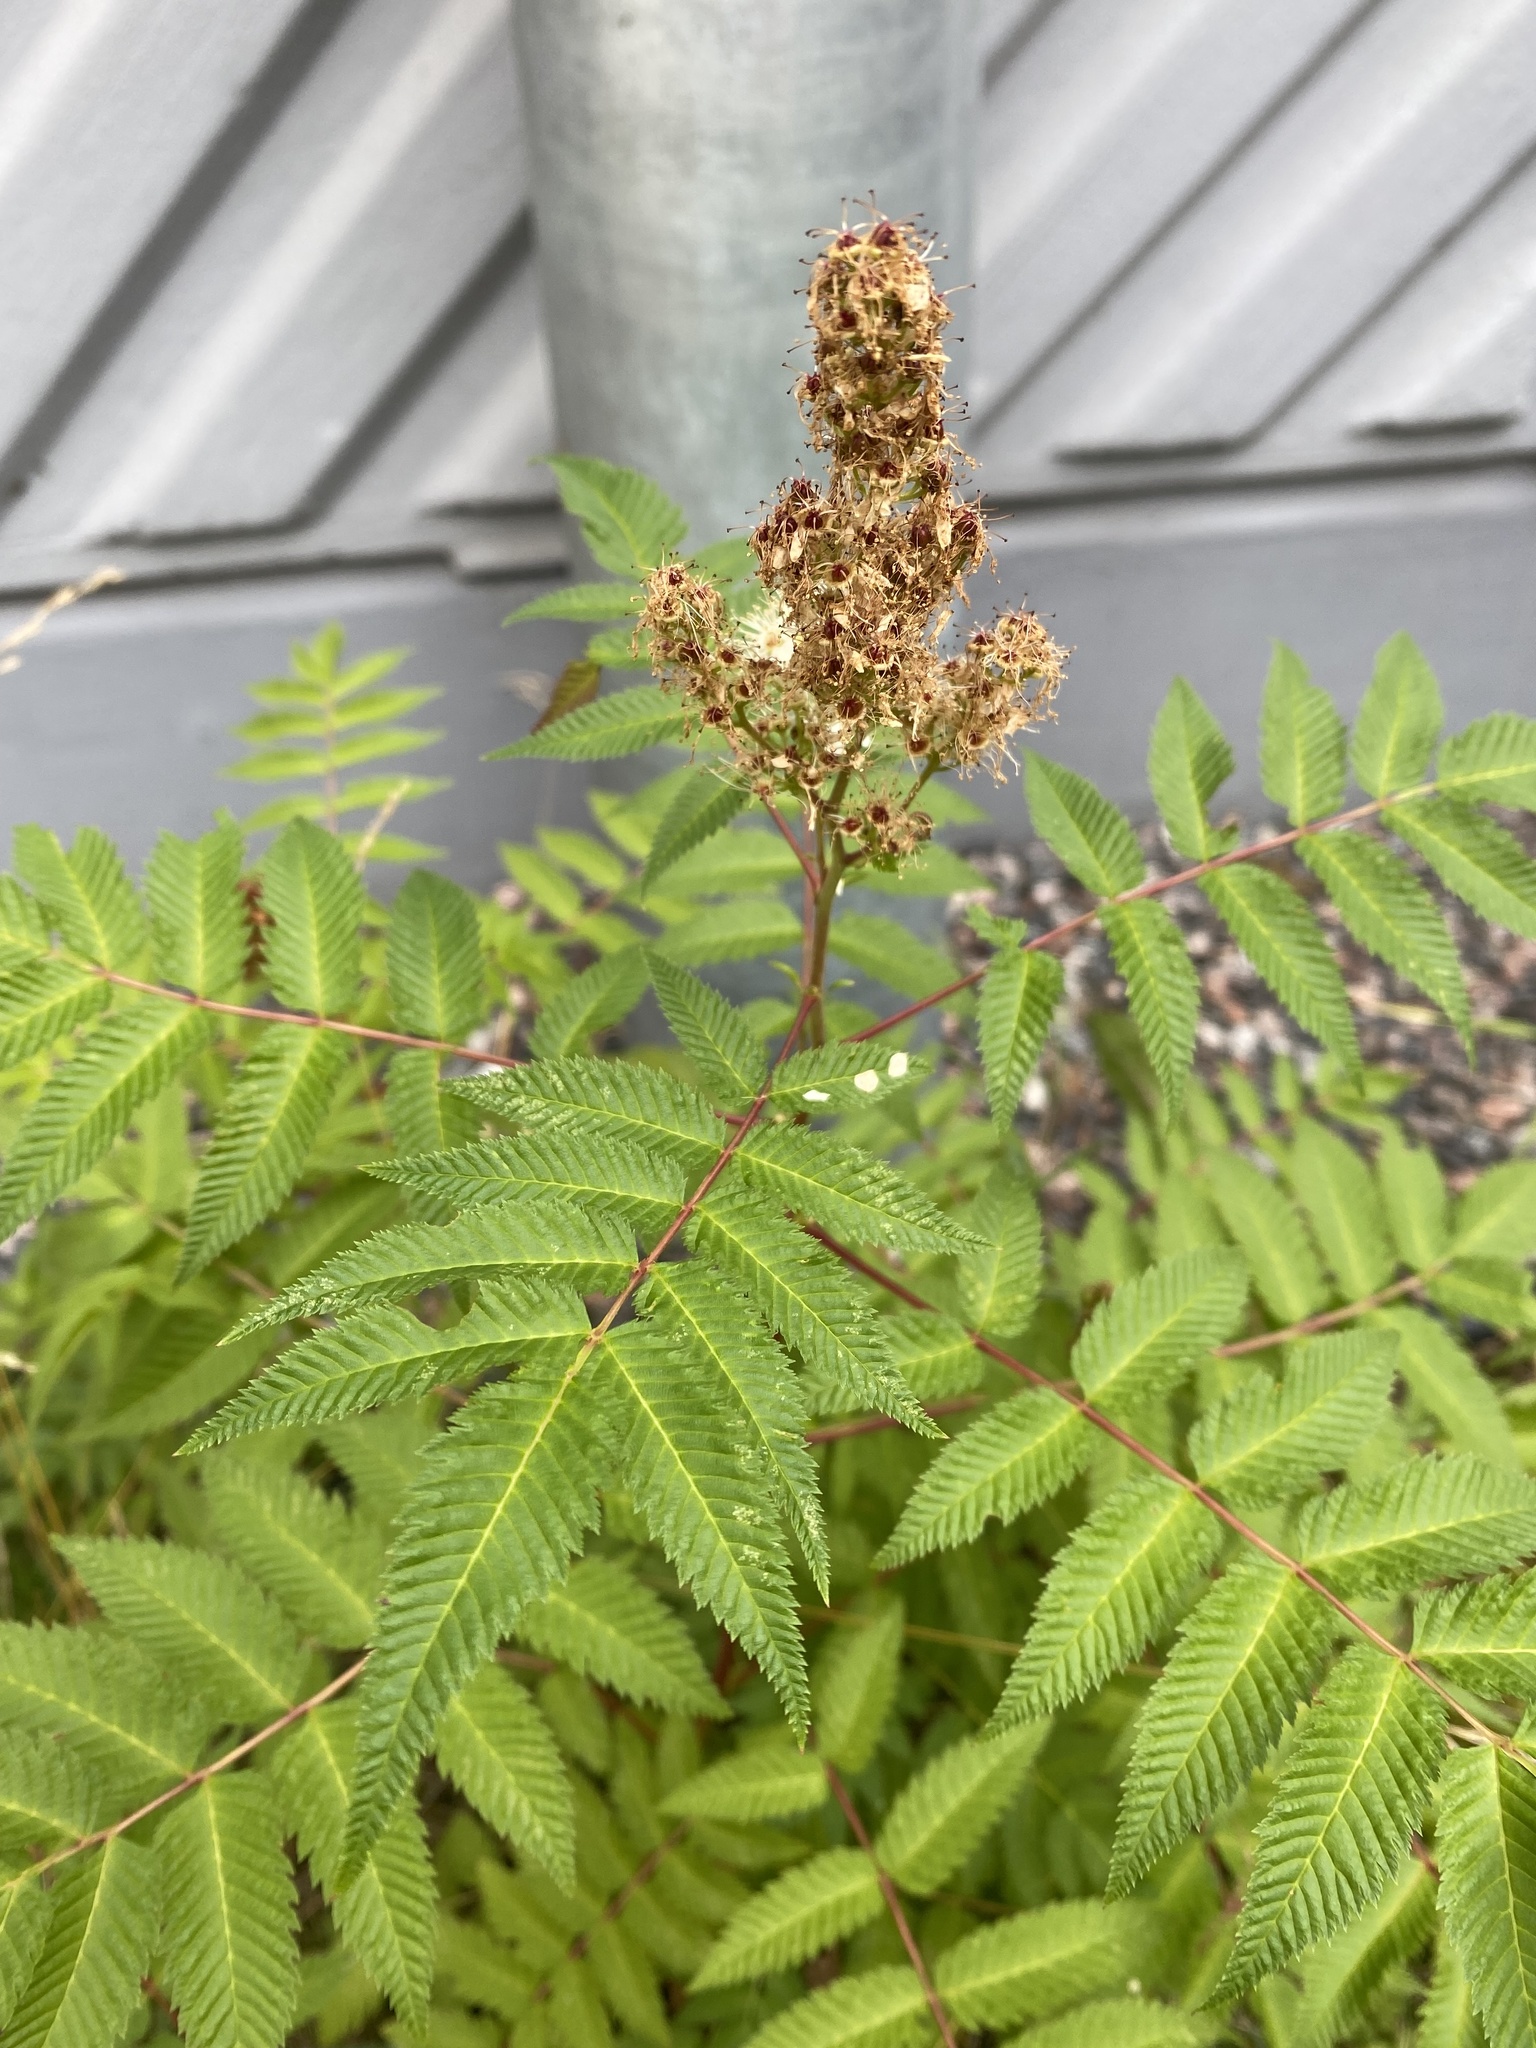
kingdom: Plantae
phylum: Tracheophyta
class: Magnoliopsida
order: Rosales
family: Rosaceae
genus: Sorbaria
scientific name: Sorbaria sorbifolia
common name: False spiraea
